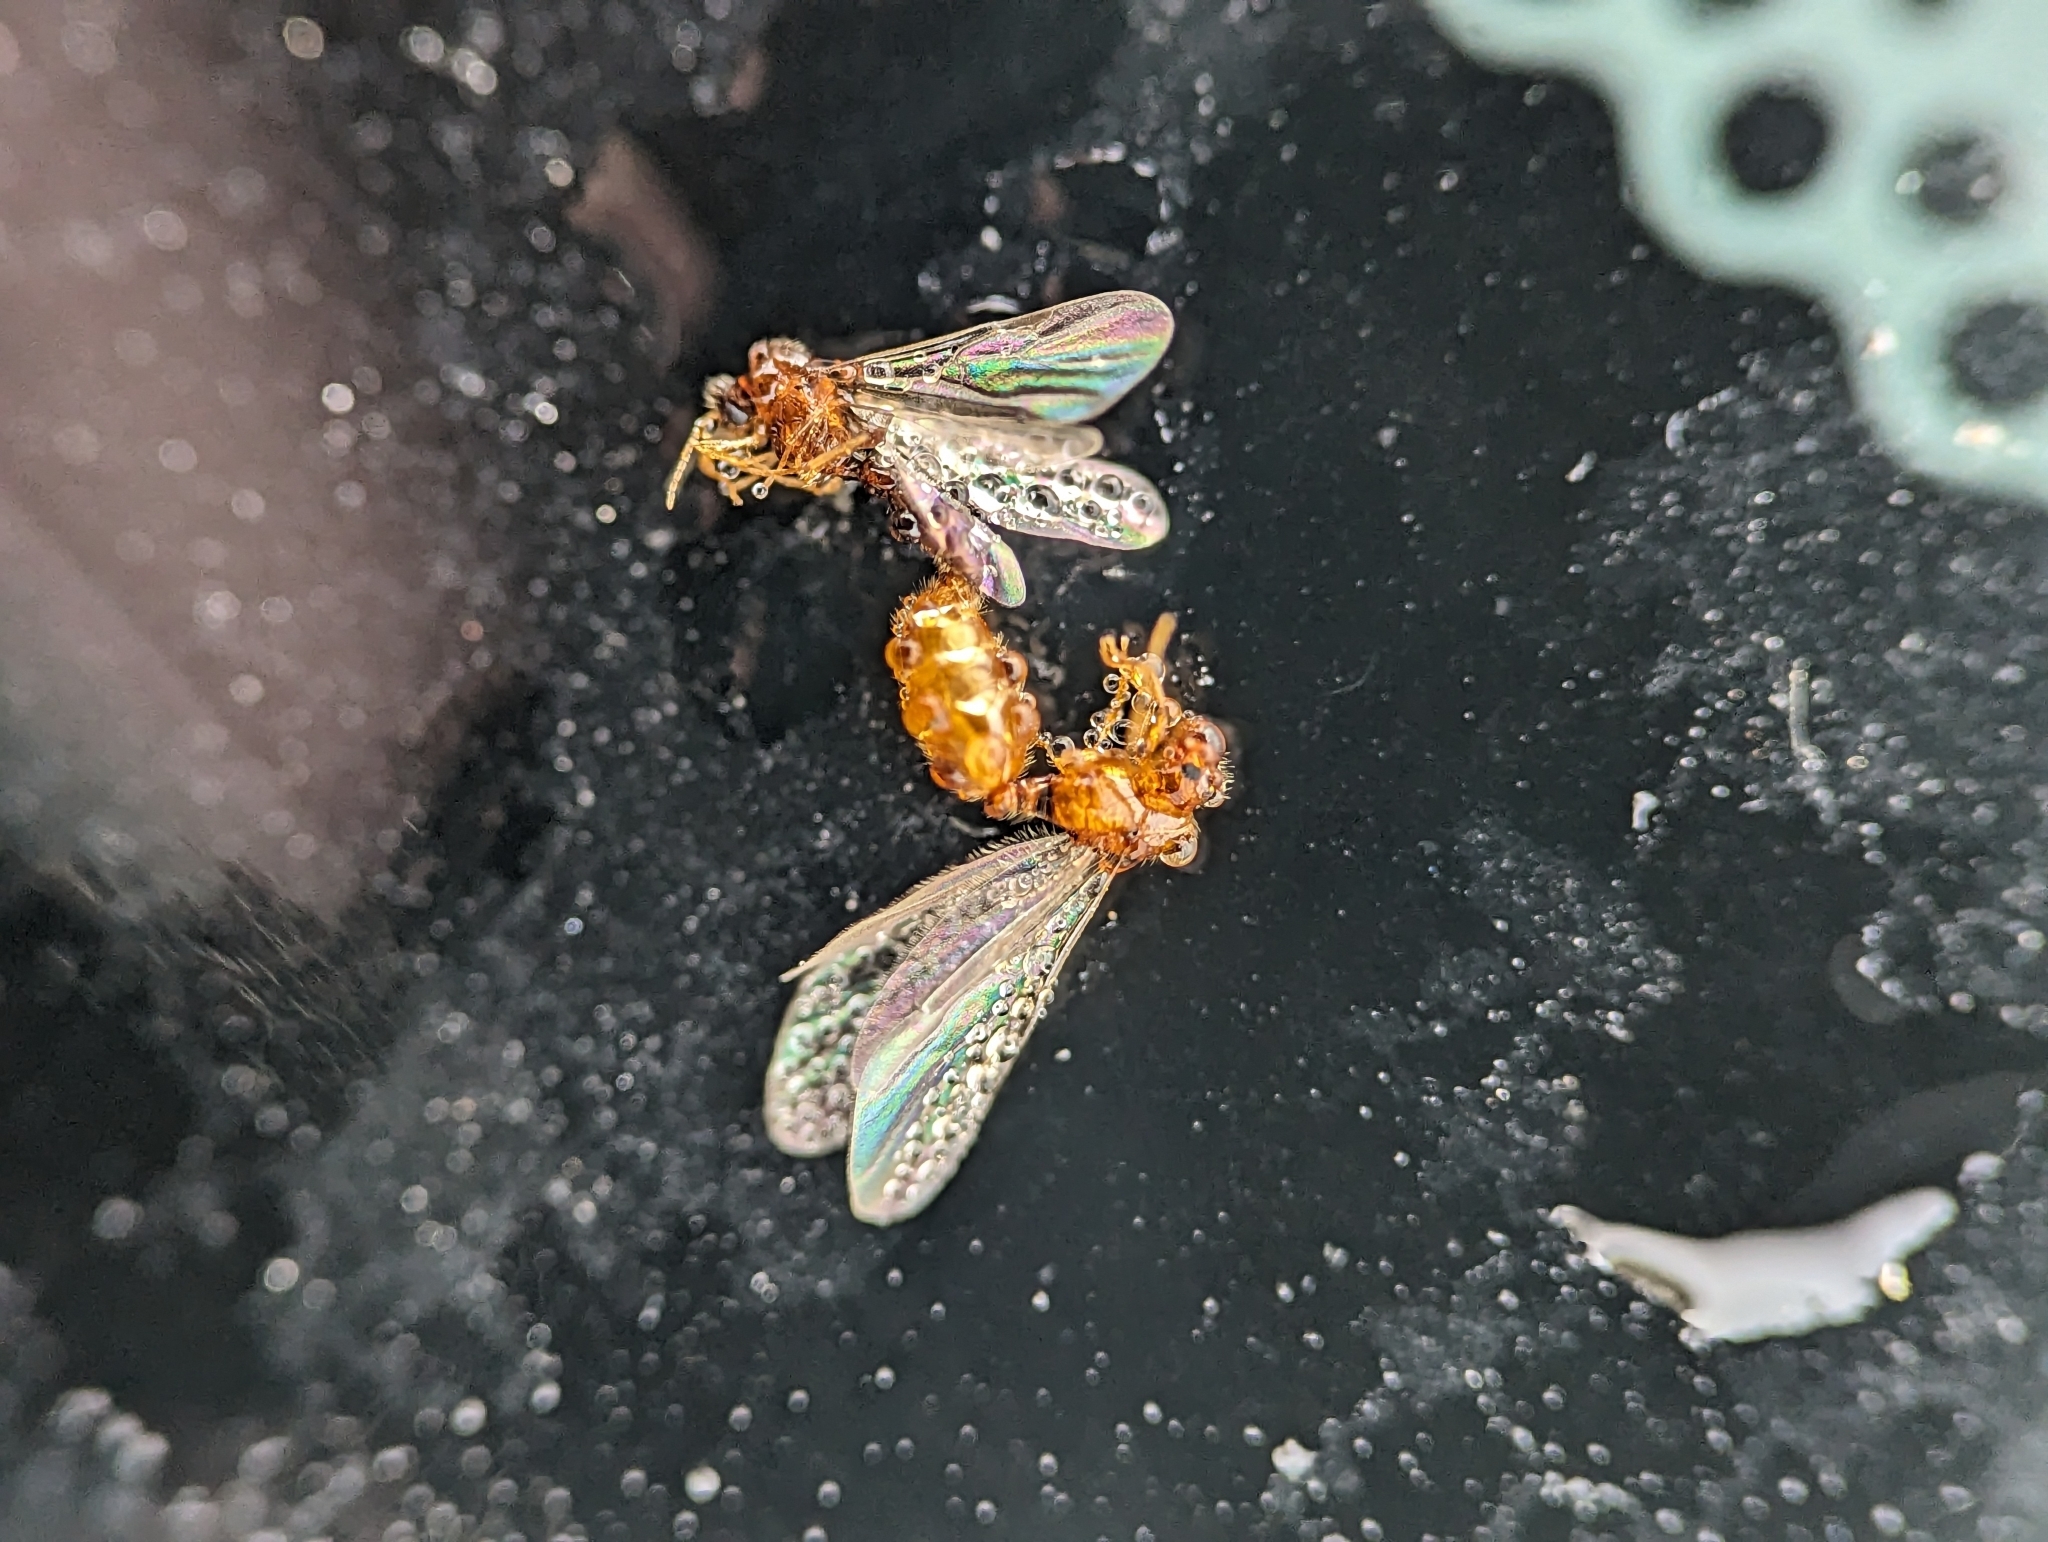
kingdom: Animalia
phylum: Arthropoda
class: Insecta
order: Hymenoptera
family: Formicidae
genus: Solenopsis
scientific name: Solenopsis molesta
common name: Thief ant
